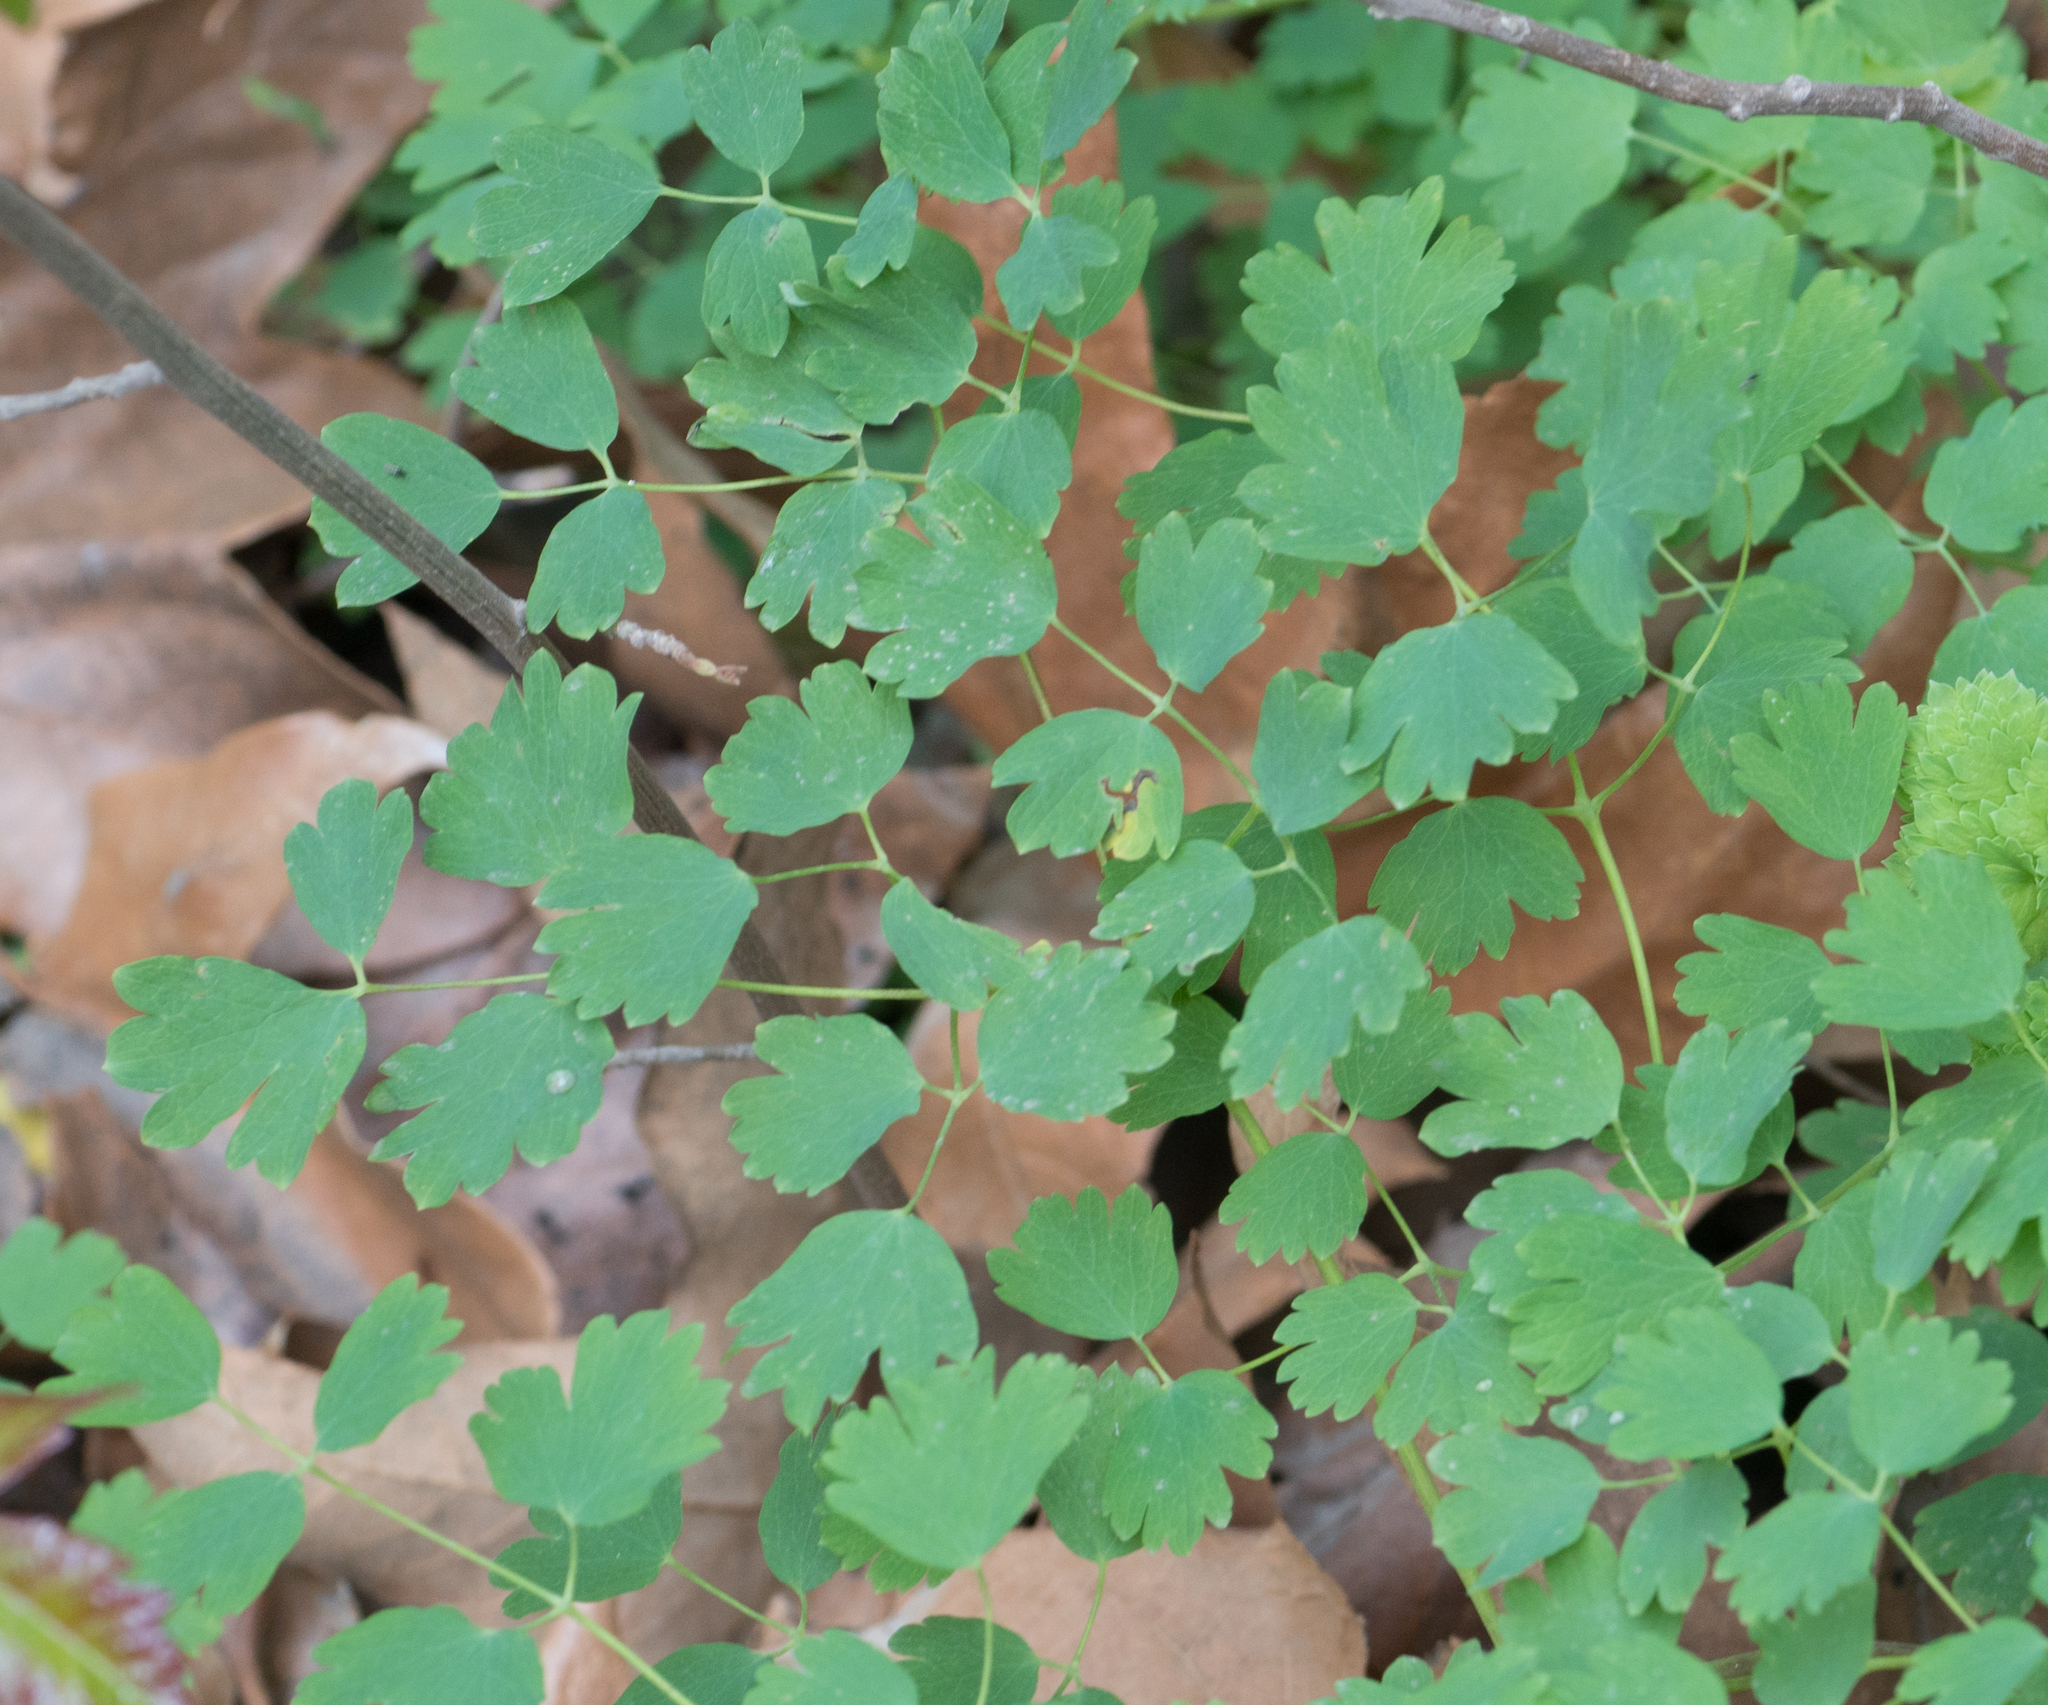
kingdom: Plantae
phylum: Tracheophyta
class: Magnoliopsida
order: Ranunculales
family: Ranunculaceae
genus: Thalictrum
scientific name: Thalictrum fendleri
